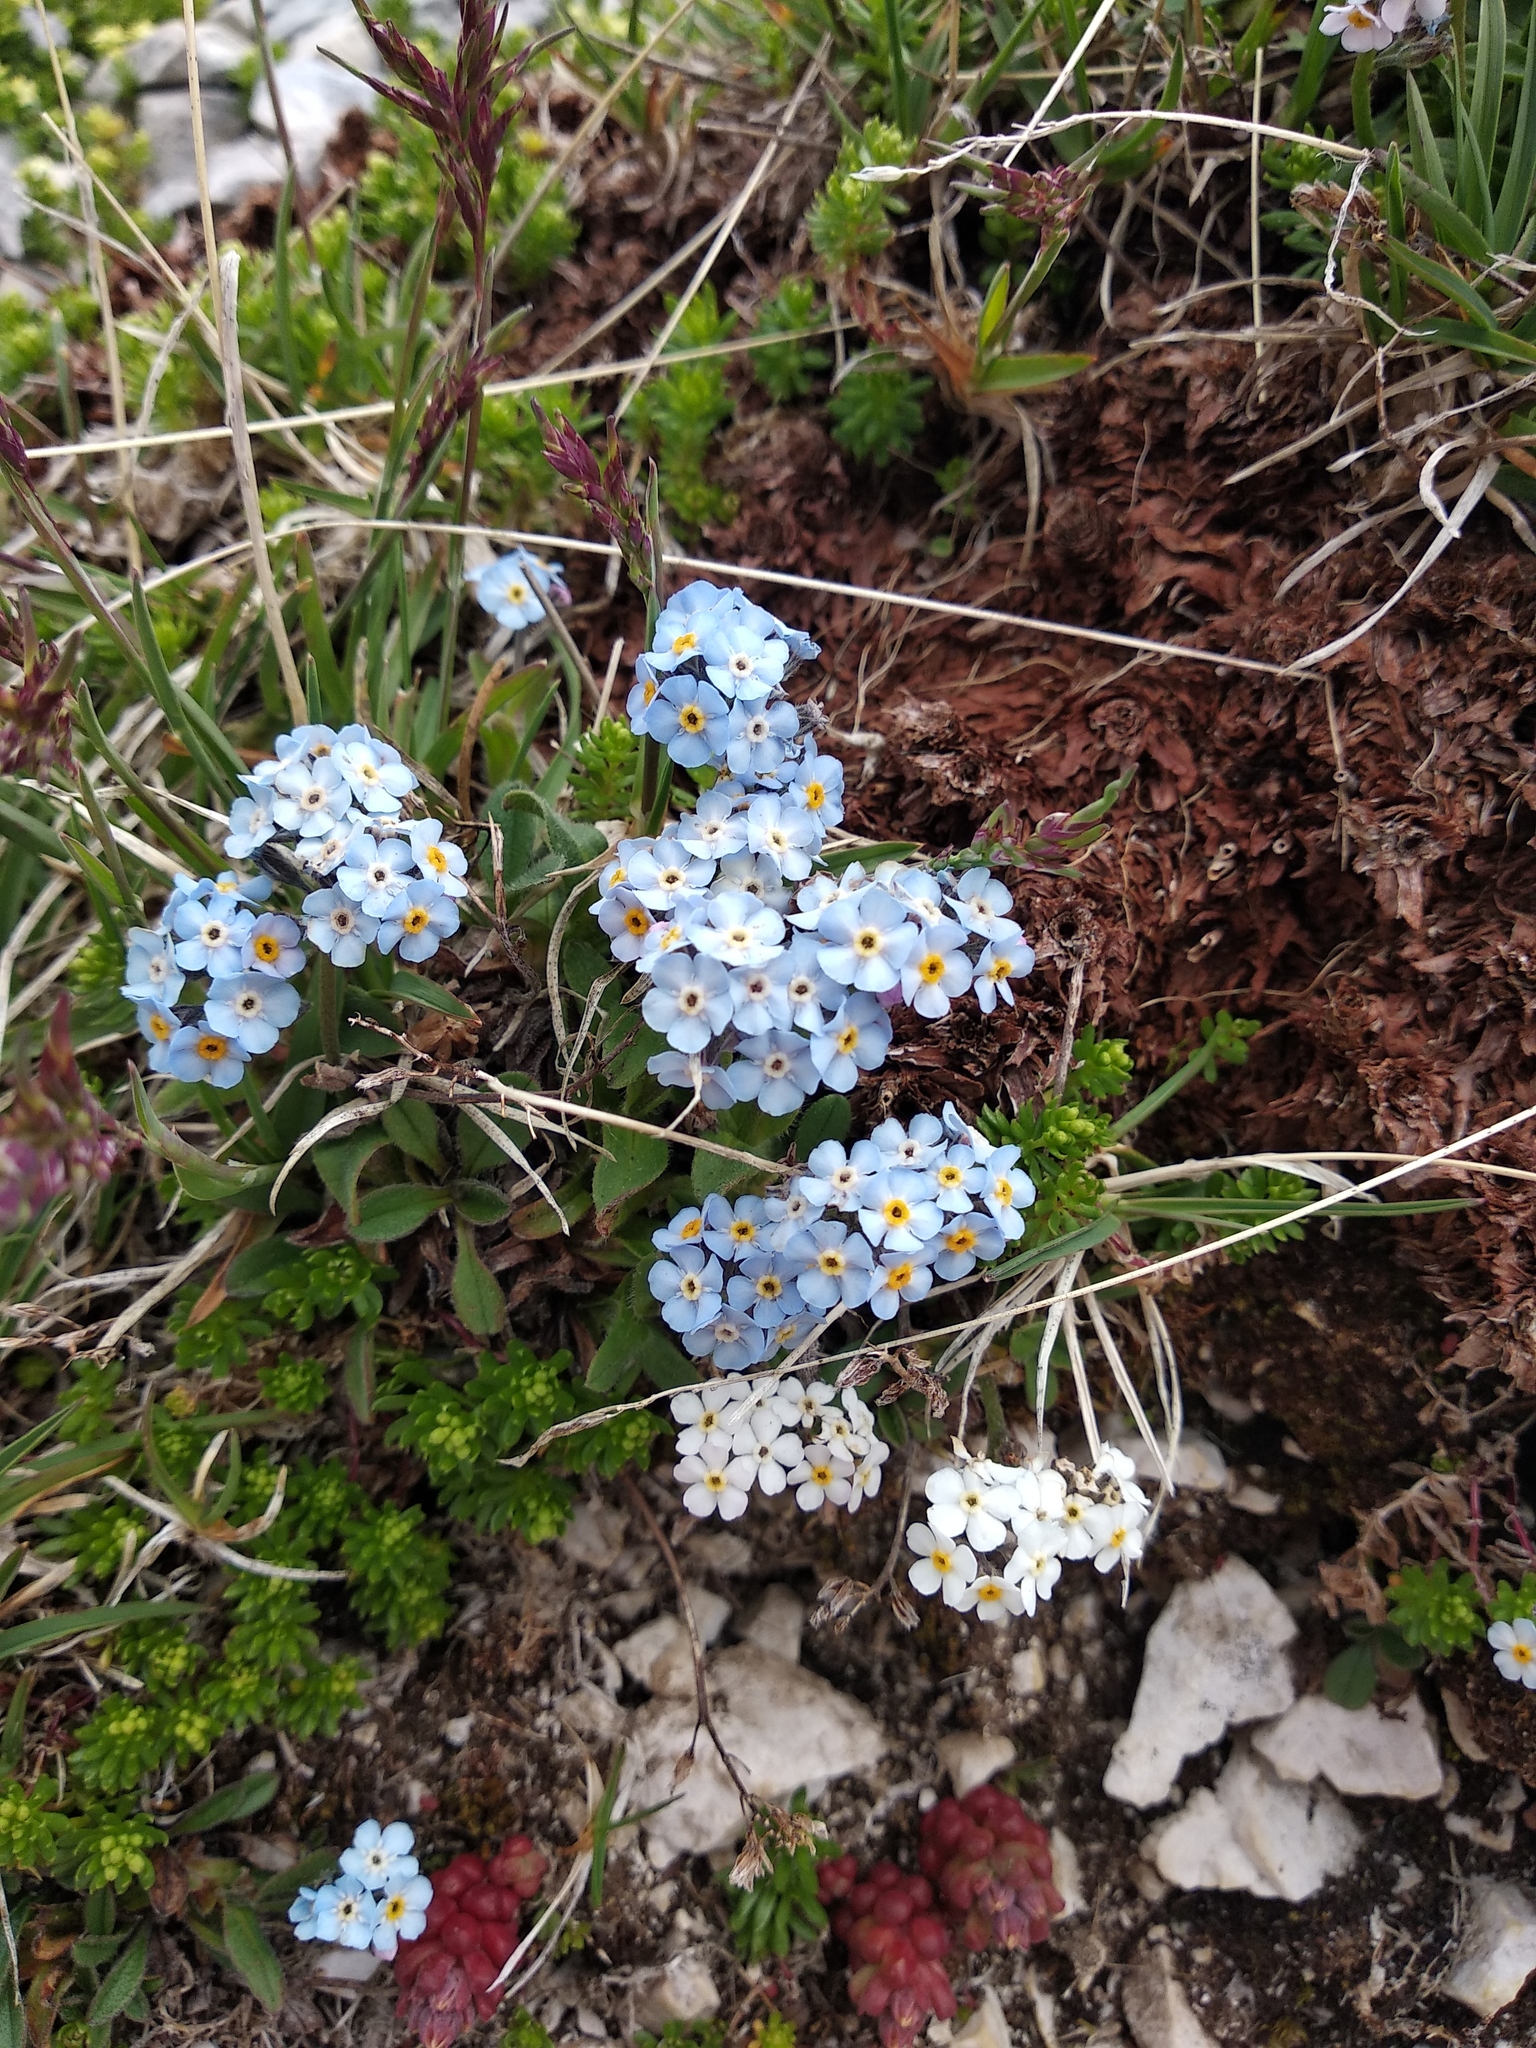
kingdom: Plantae
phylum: Tracheophyta
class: Magnoliopsida
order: Boraginales
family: Boraginaceae
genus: Myosotis
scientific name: Myosotis graui
